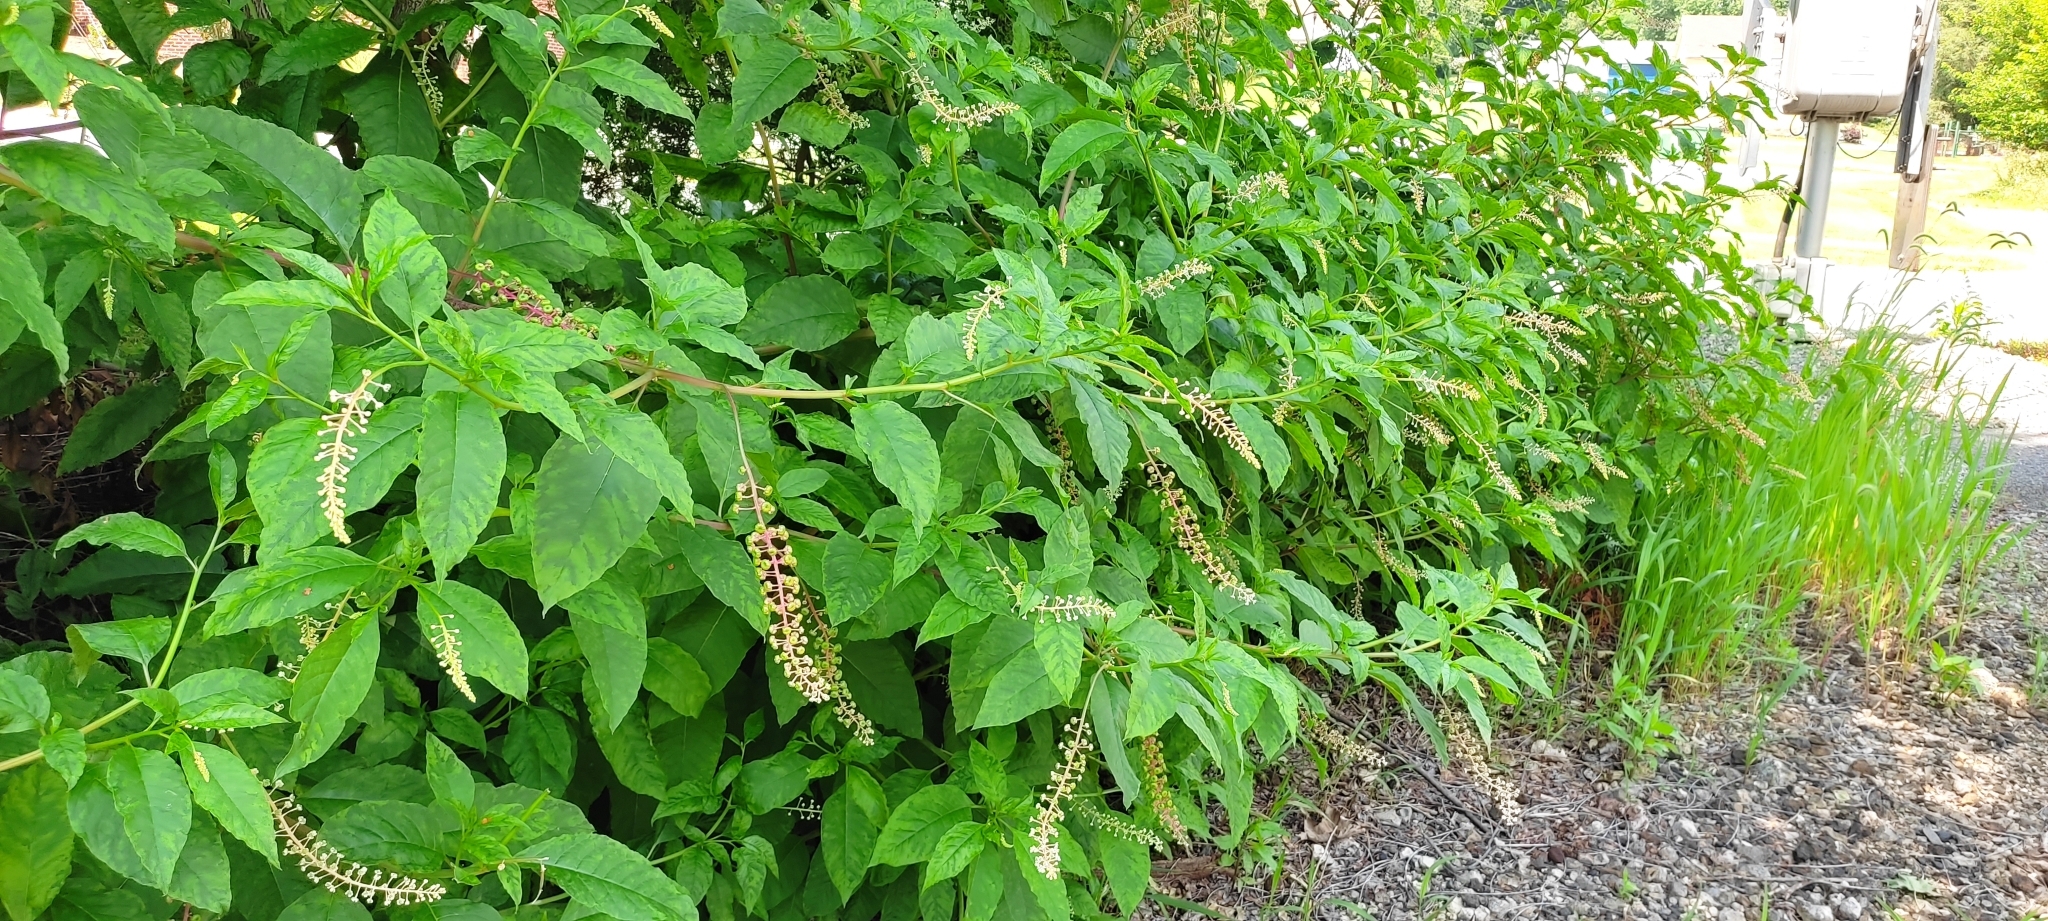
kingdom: Plantae
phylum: Tracheophyta
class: Magnoliopsida
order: Caryophyllales
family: Phytolaccaceae
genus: Phytolacca
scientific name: Phytolacca americana
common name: American pokeweed
